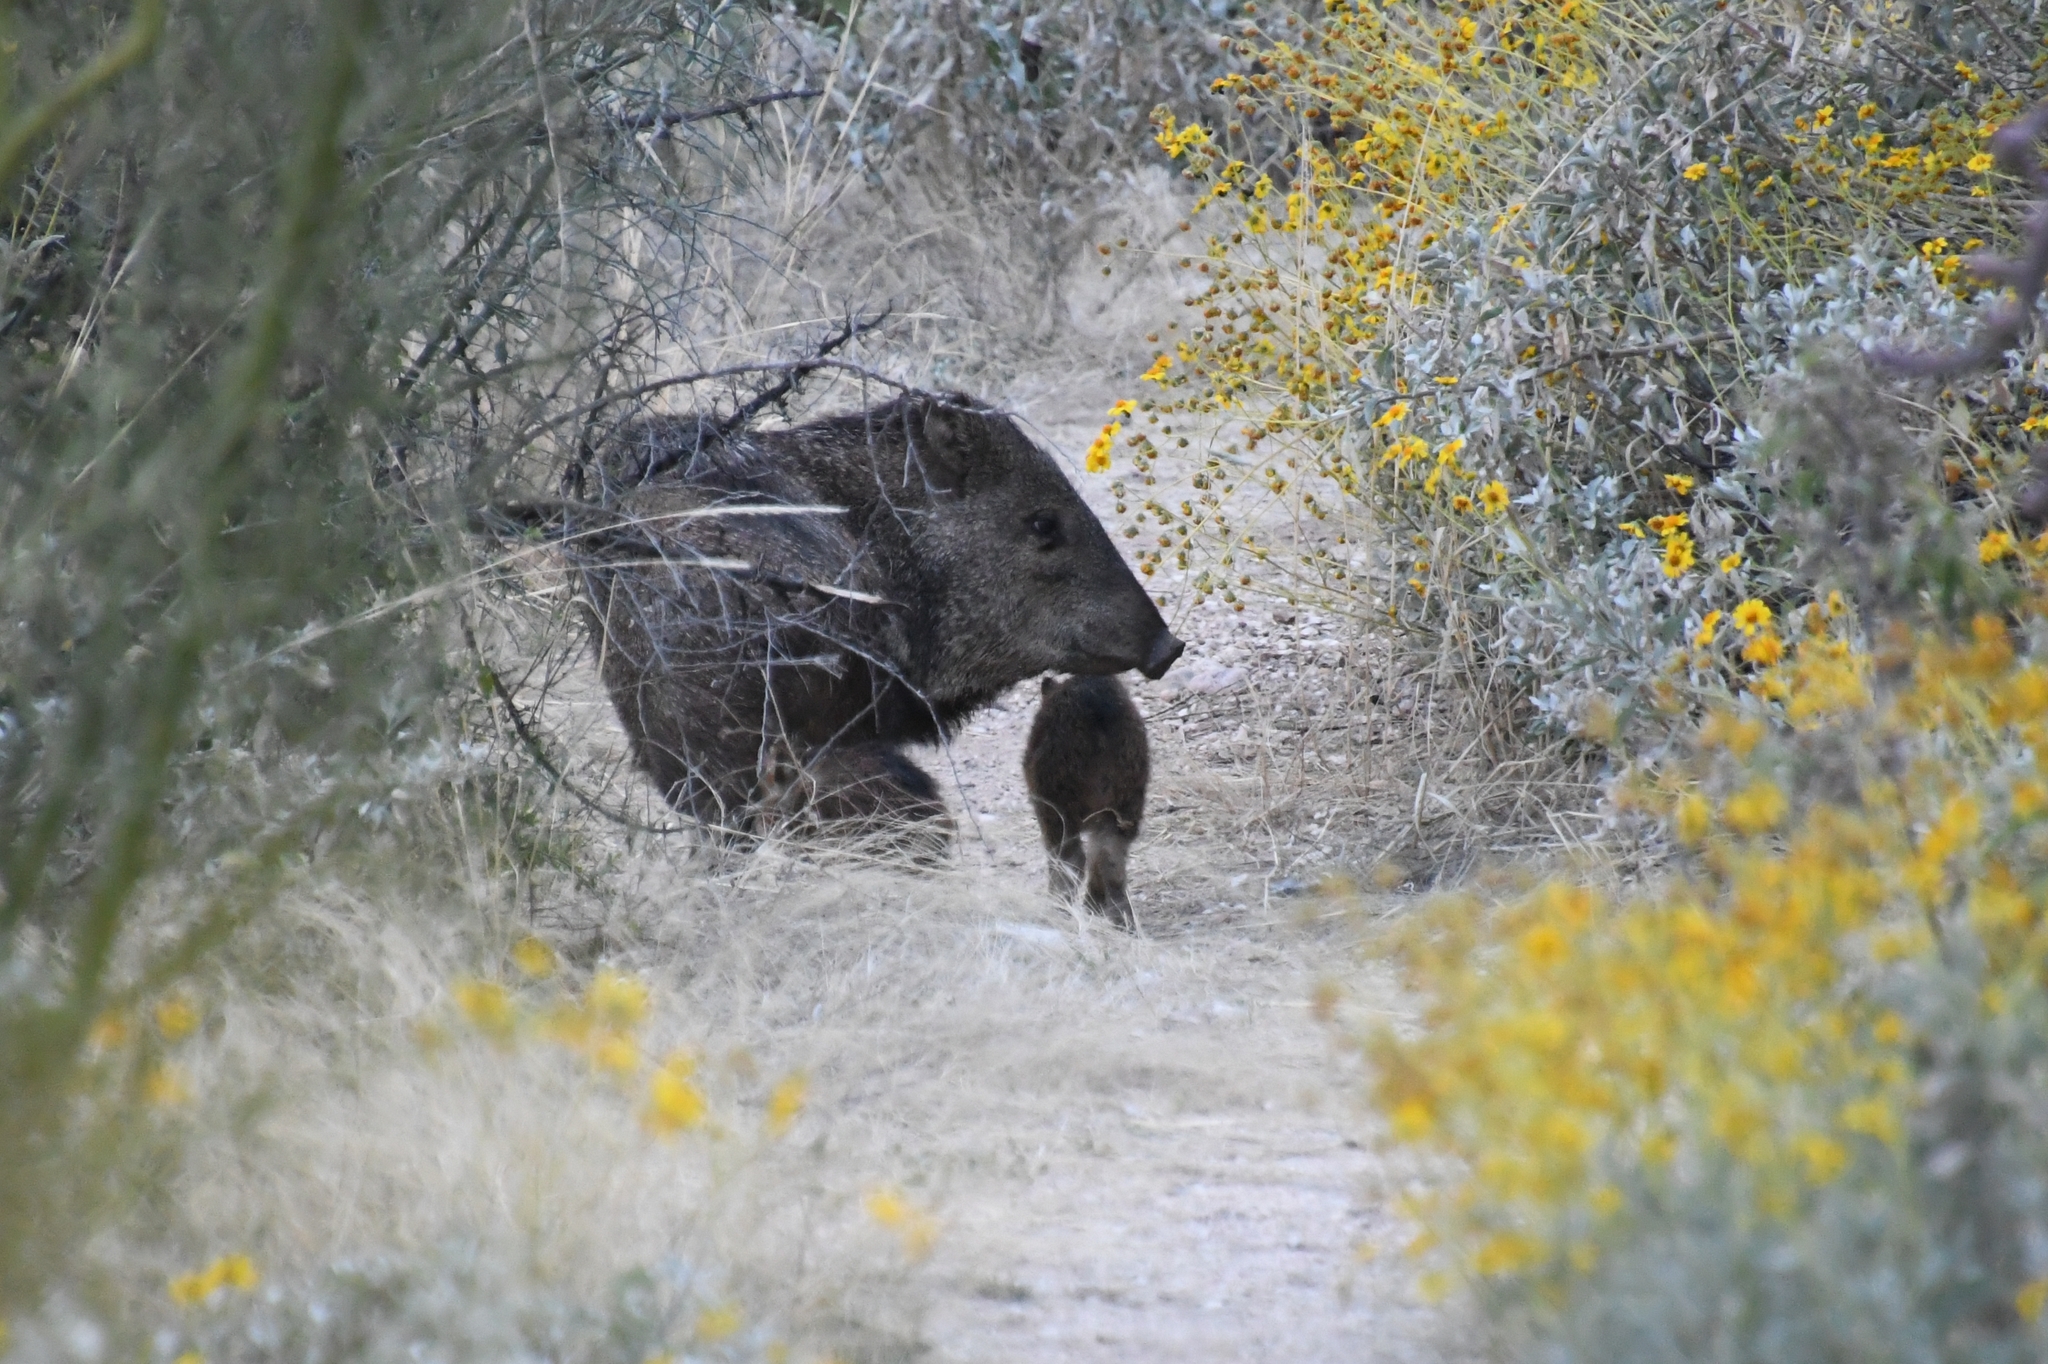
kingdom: Animalia
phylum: Chordata
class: Mammalia
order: Artiodactyla
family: Tayassuidae
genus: Pecari
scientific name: Pecari tajacu
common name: Collared peccary
